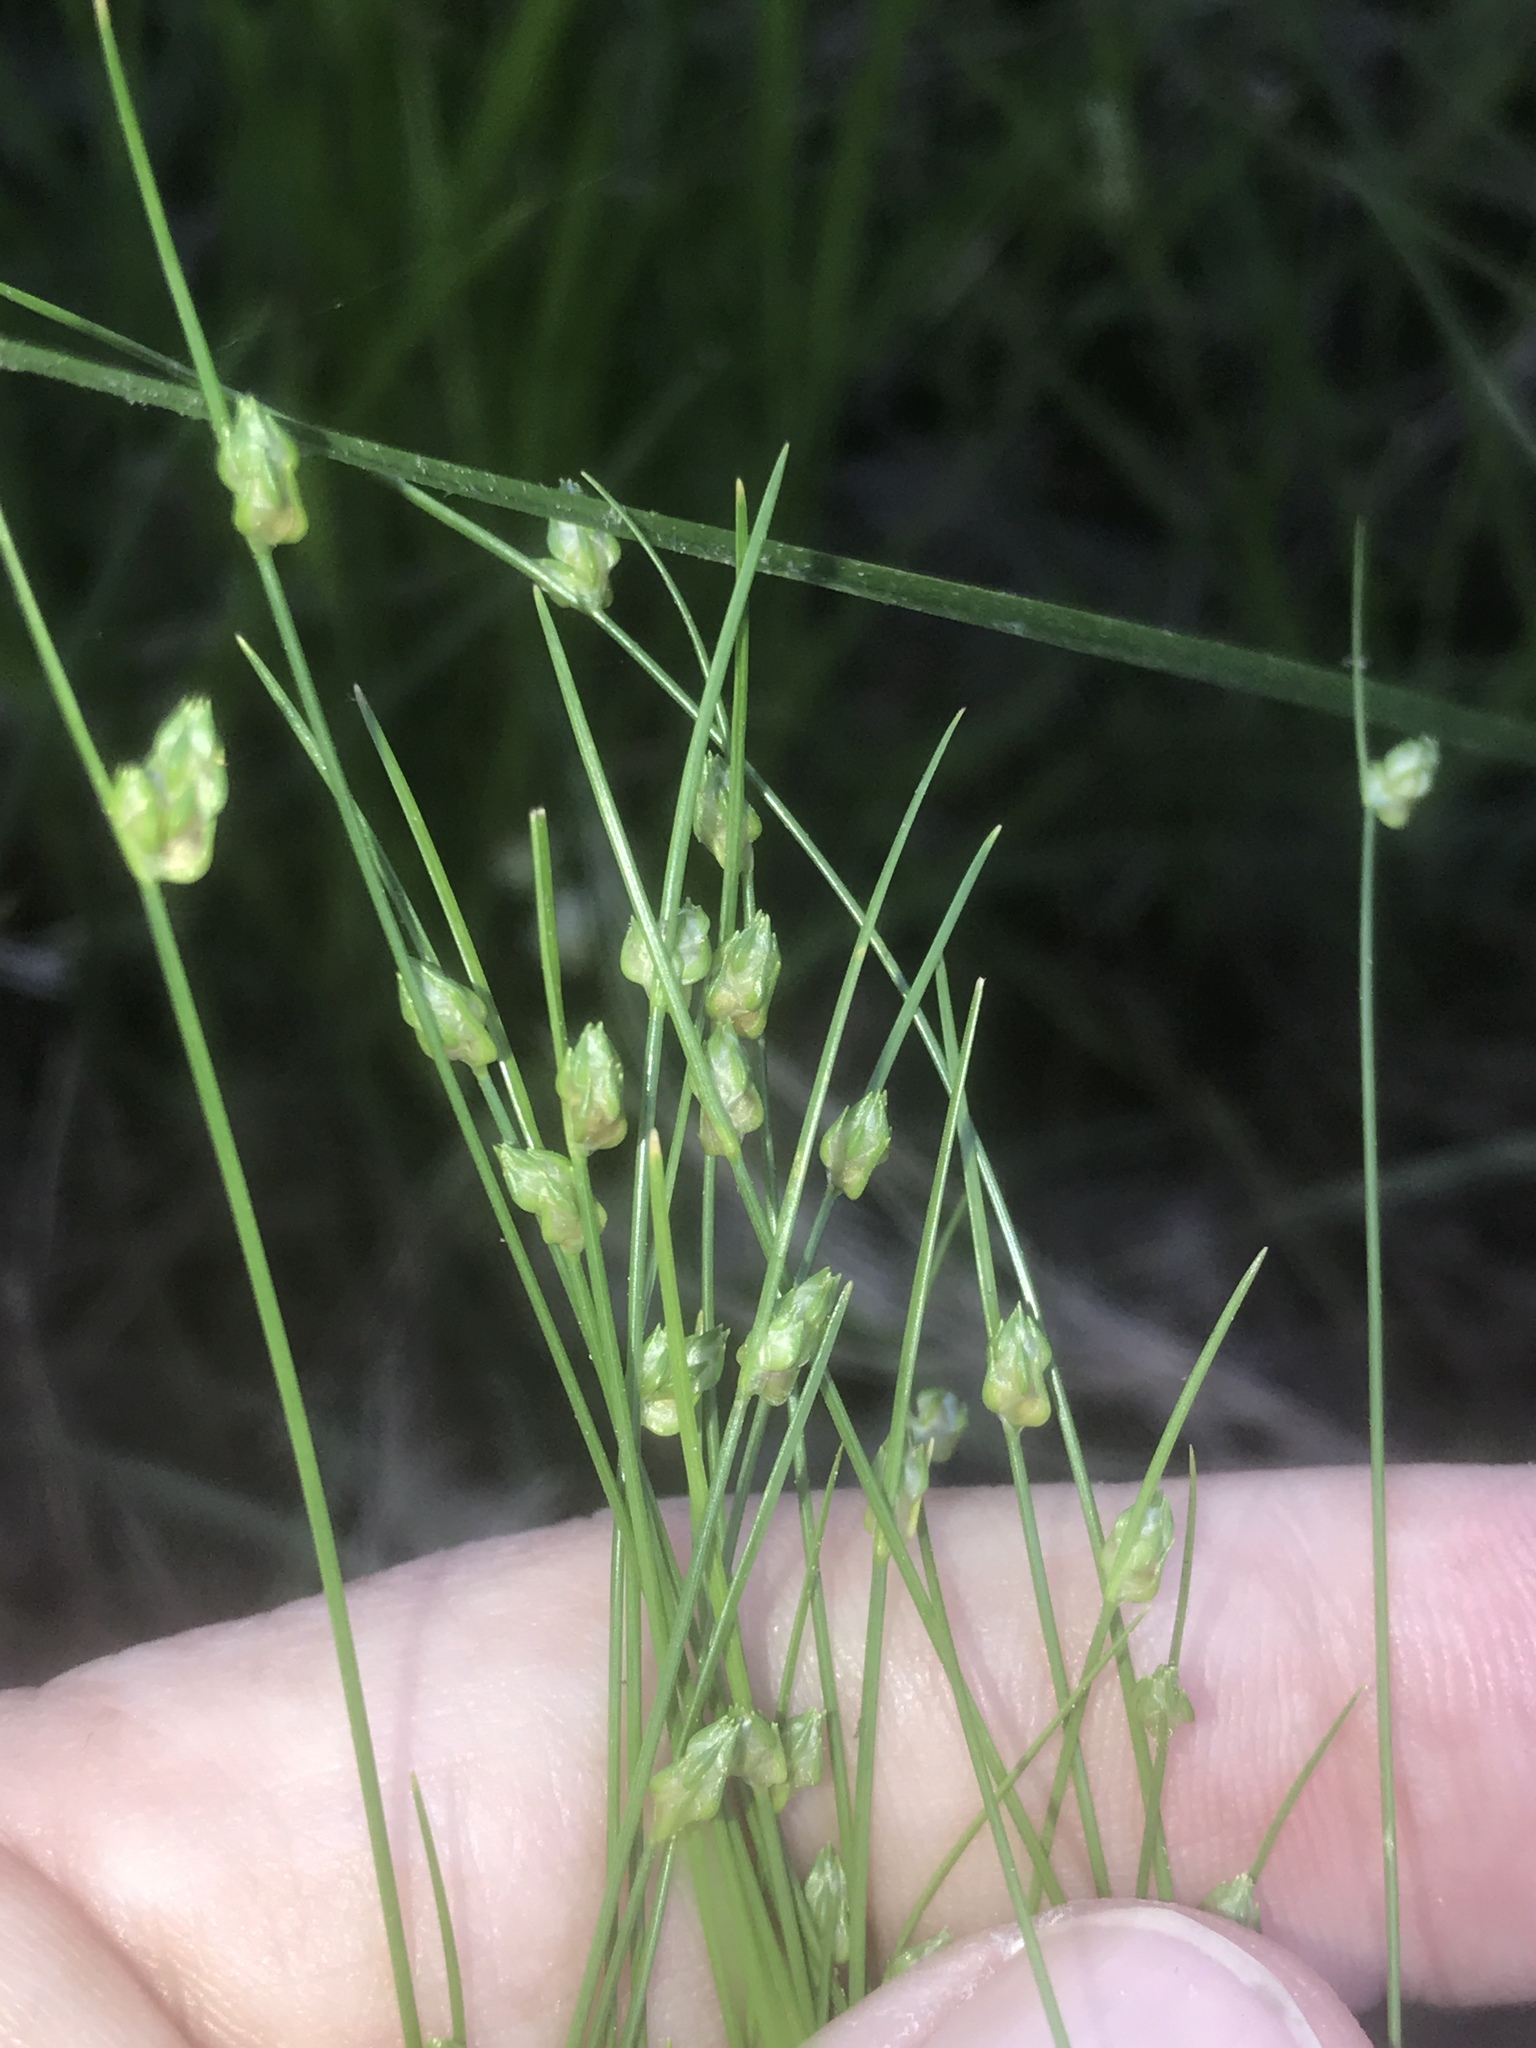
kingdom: Plantae
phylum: Tracheophyta
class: Liliopsida
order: Poales
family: Cyperaceae
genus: Isolepis
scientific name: Isolepis carinata
